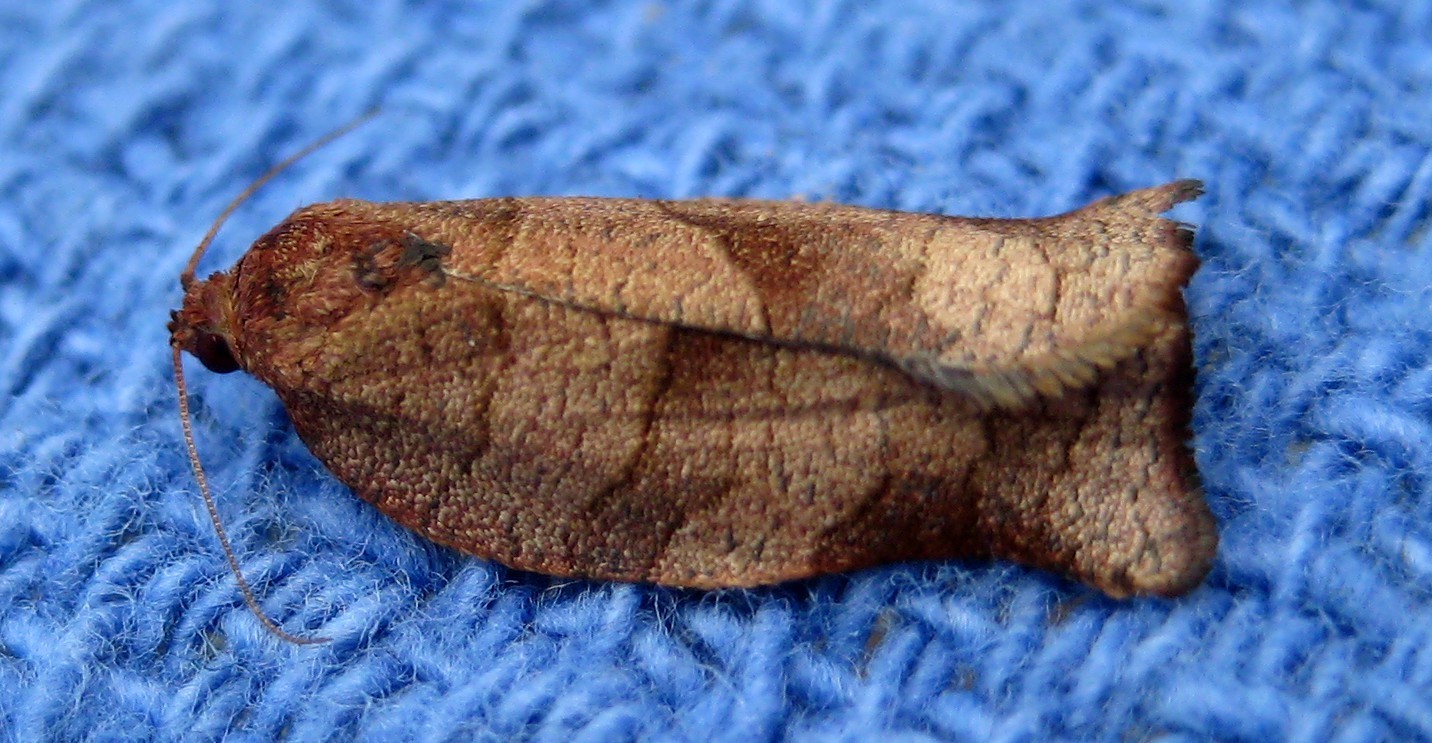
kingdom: Animalia
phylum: Arthropoda
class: Insecta
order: Lepidoptera
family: Tortricidae
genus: Choristoneura
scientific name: Choristoneura rosaceana
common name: Oblique-banded leafroller moth
